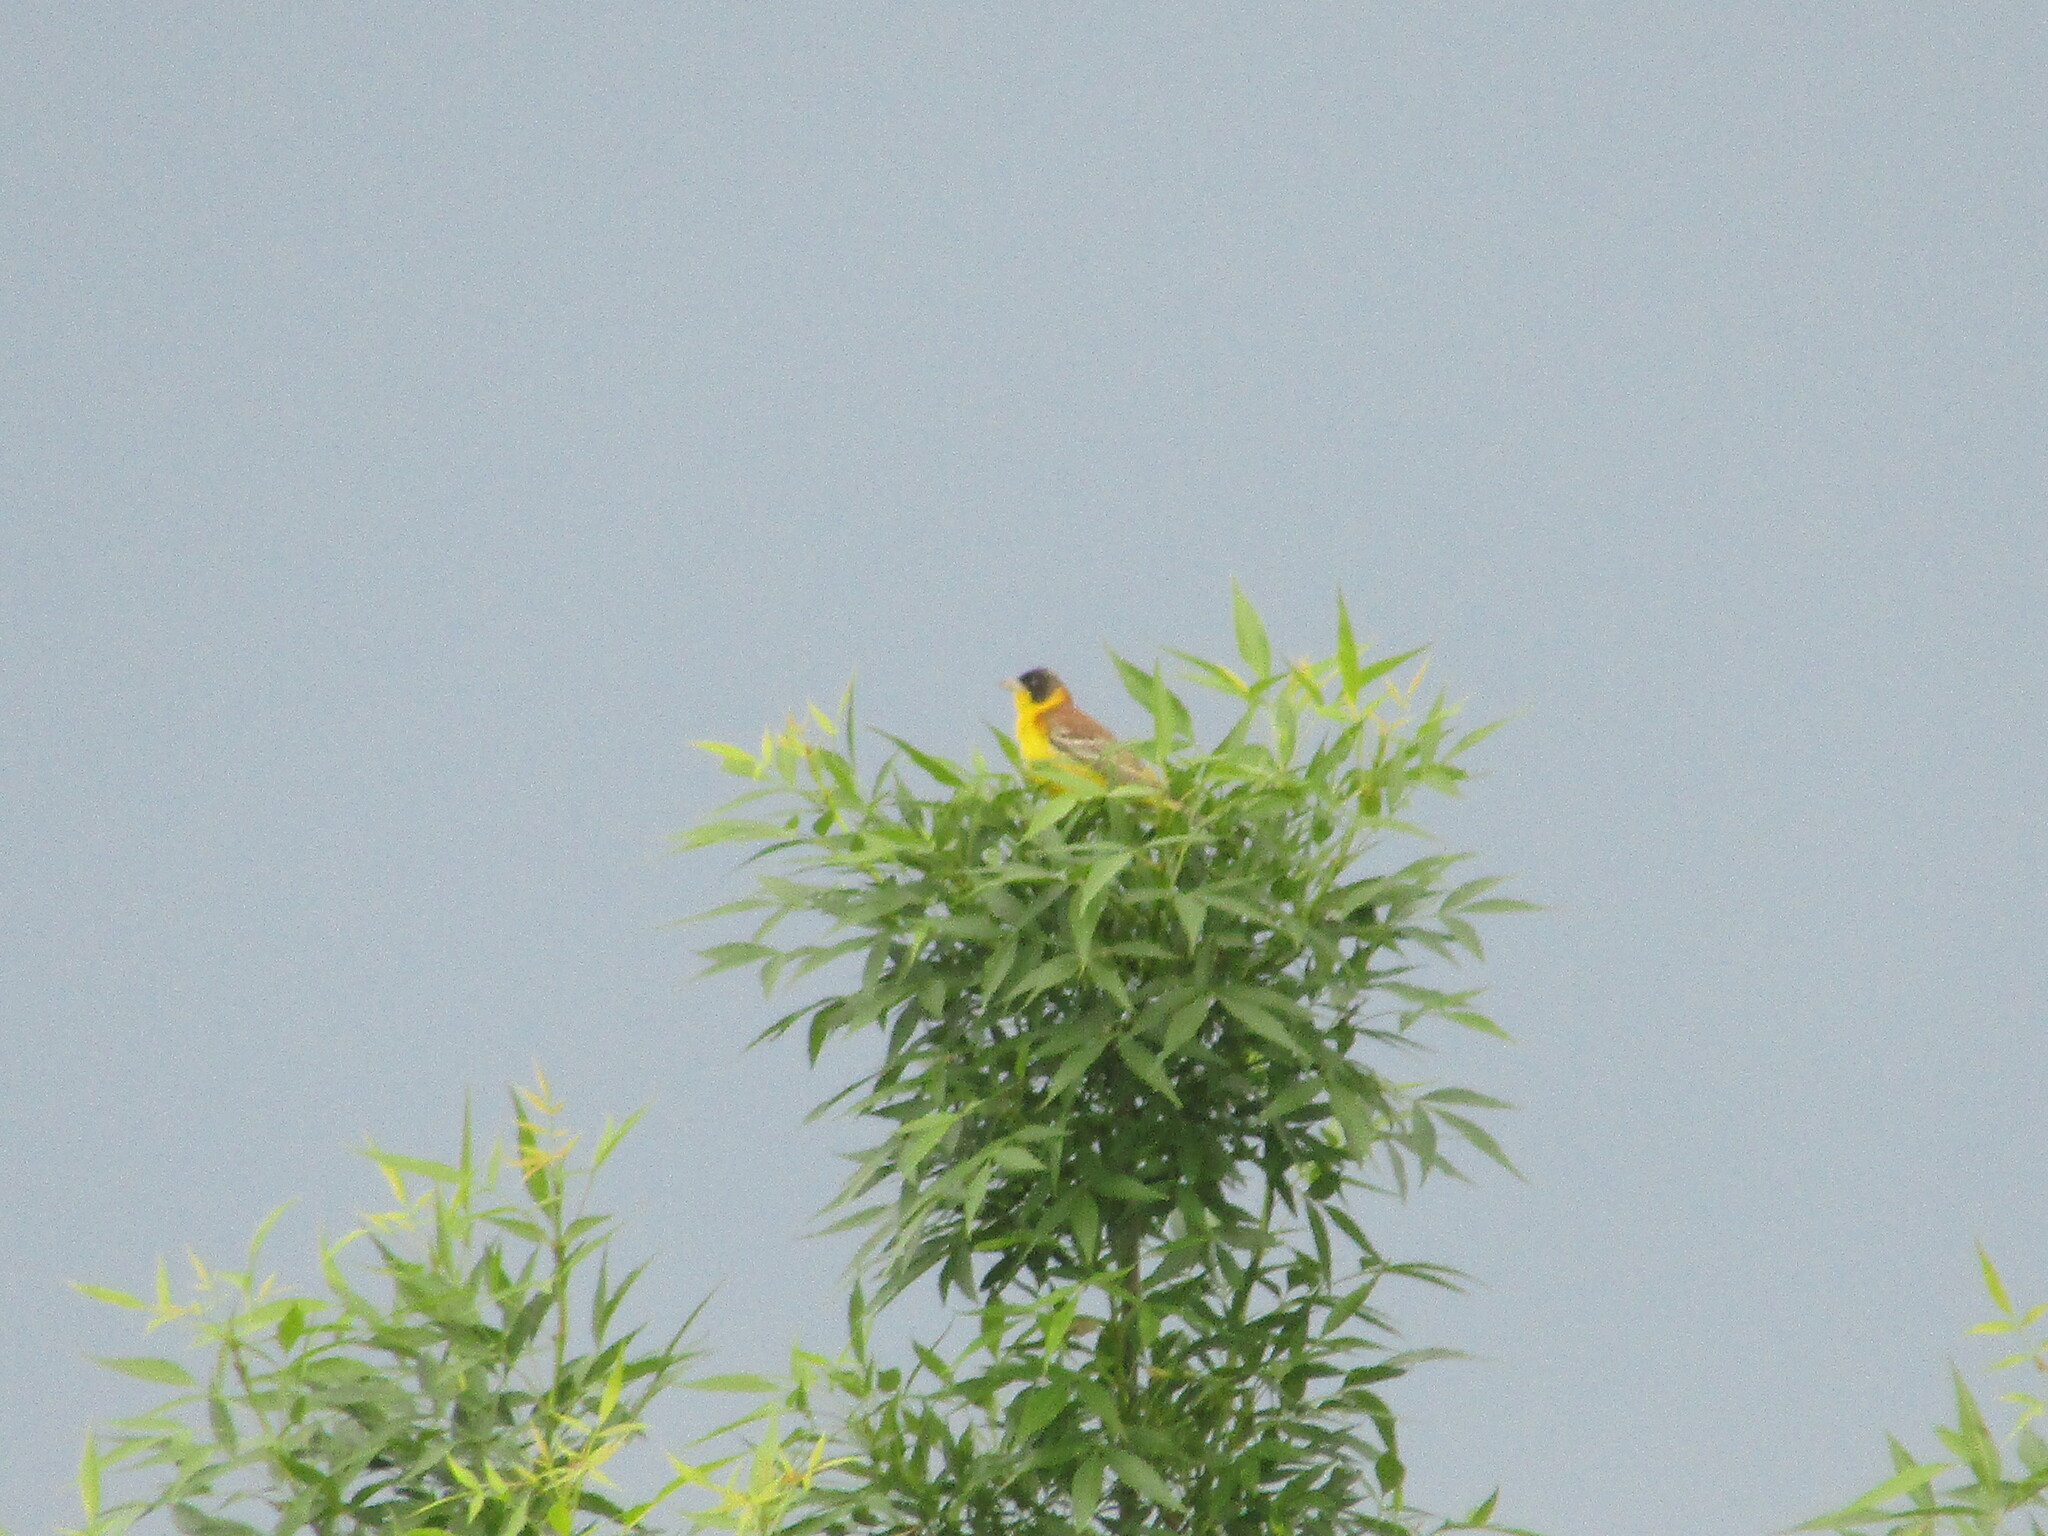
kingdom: Animalia
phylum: Chordata
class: Aves
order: Passeriformes
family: Emberizidae
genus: Emberiza
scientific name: Emberiza melanocephala
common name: Black-headed bunting
